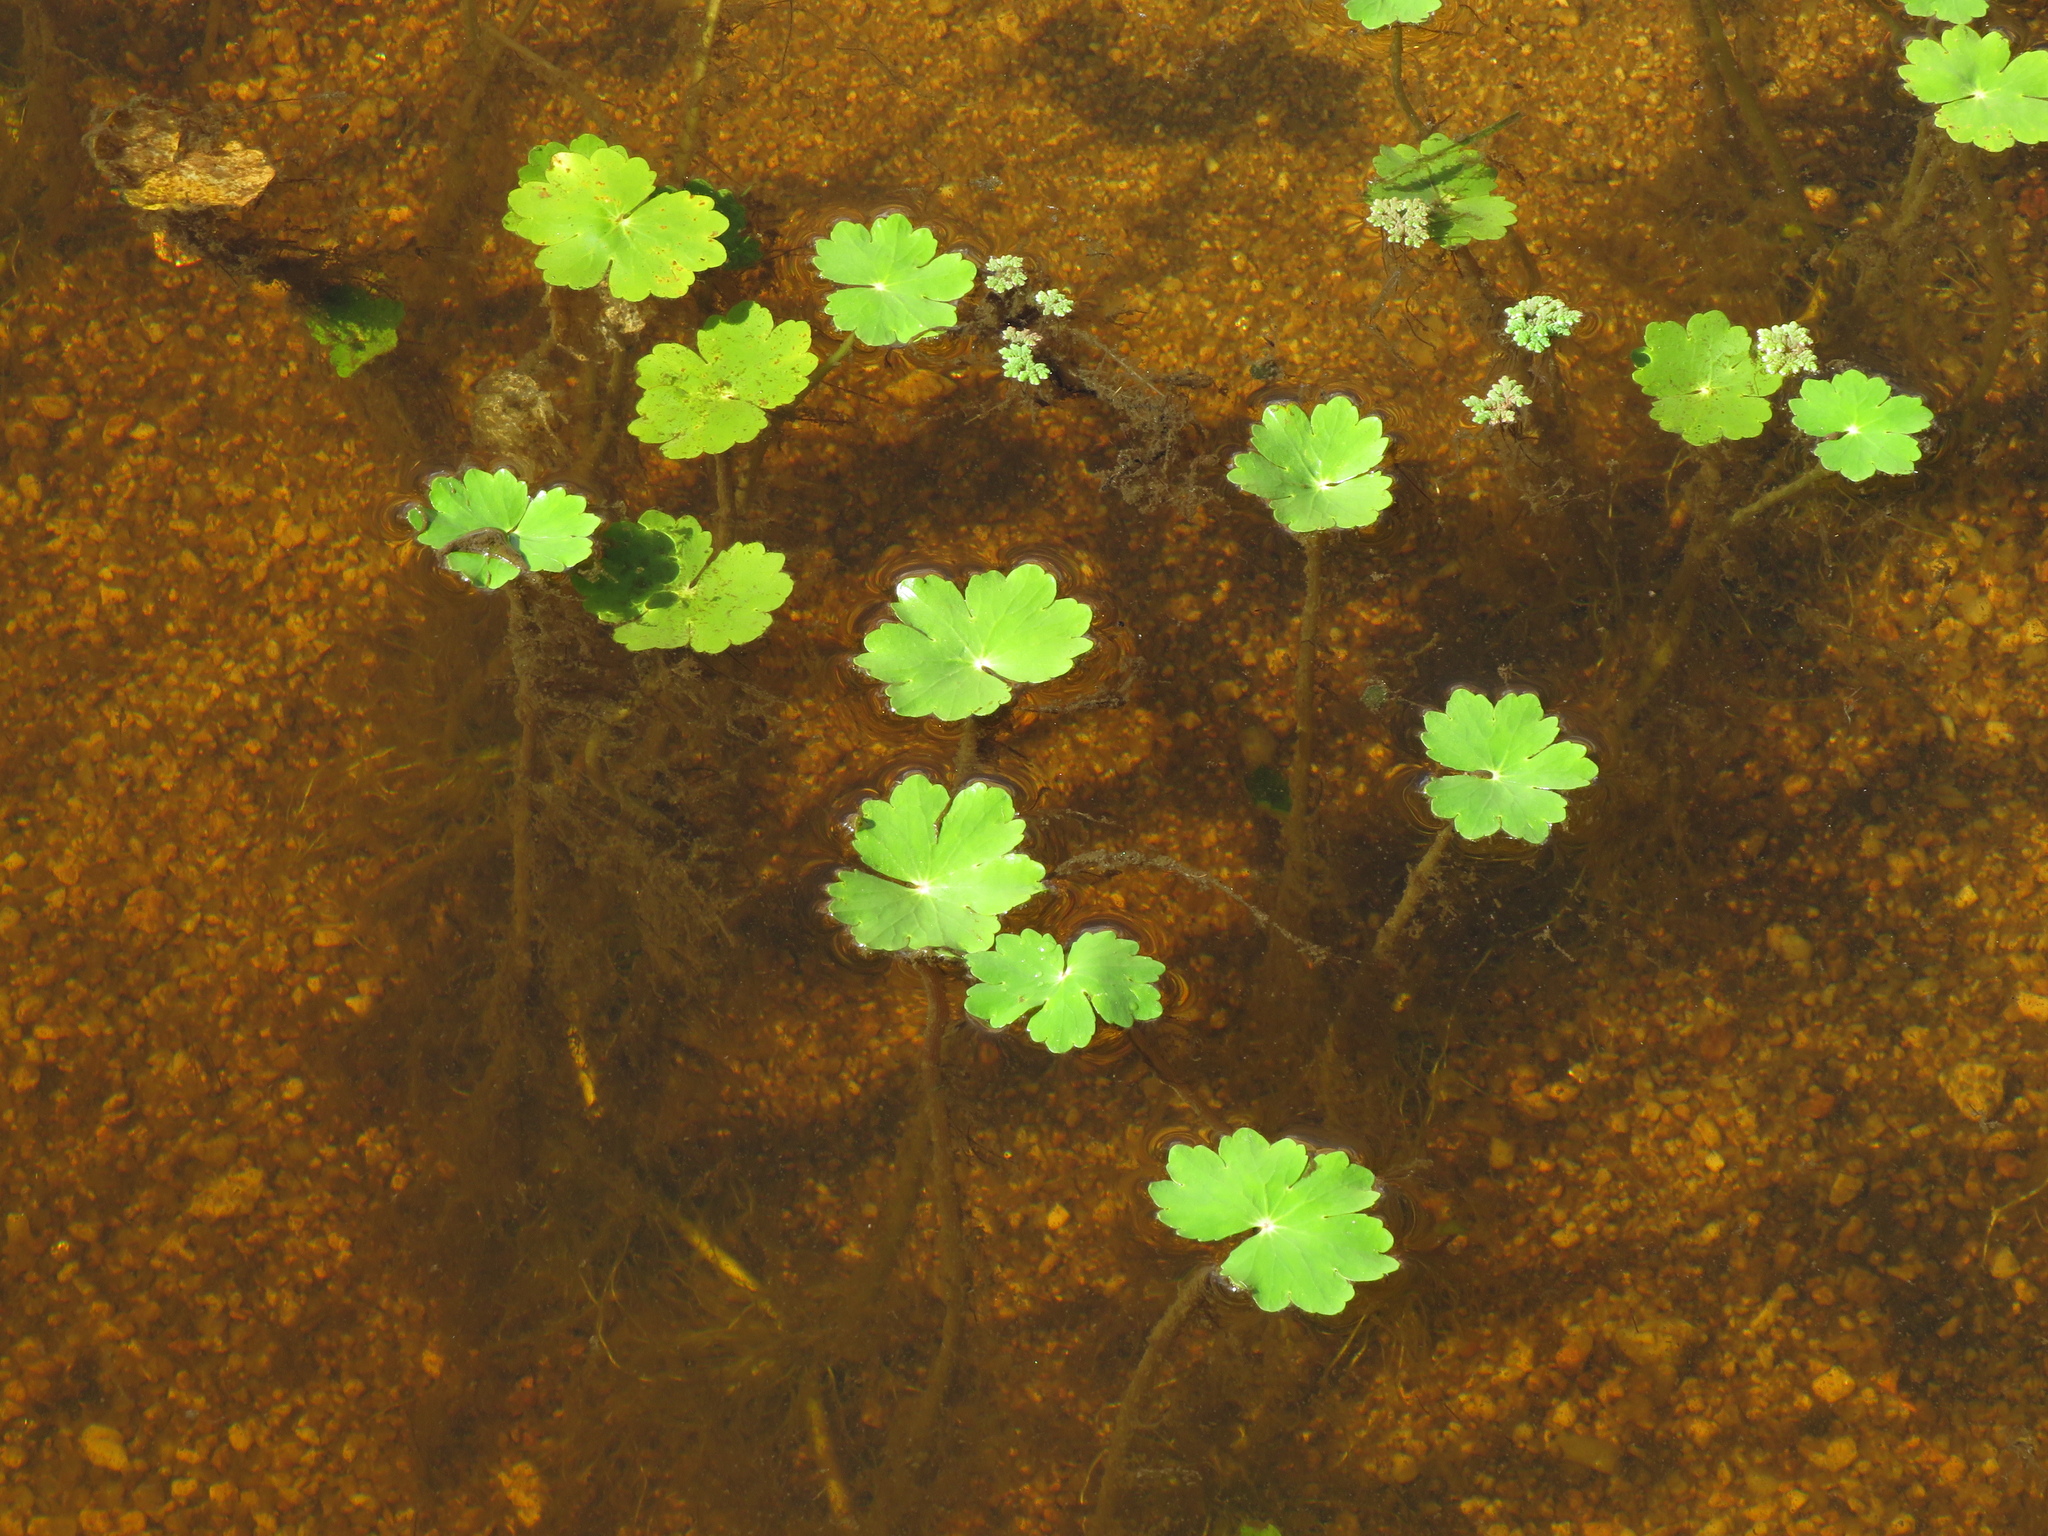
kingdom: Plantae
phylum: Tracheophyta
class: Magnoliopsida
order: Apiales
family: Araliaceae
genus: Hydrocotyle
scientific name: Hydrocotyle ranunculoides
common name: Floating pennywort
